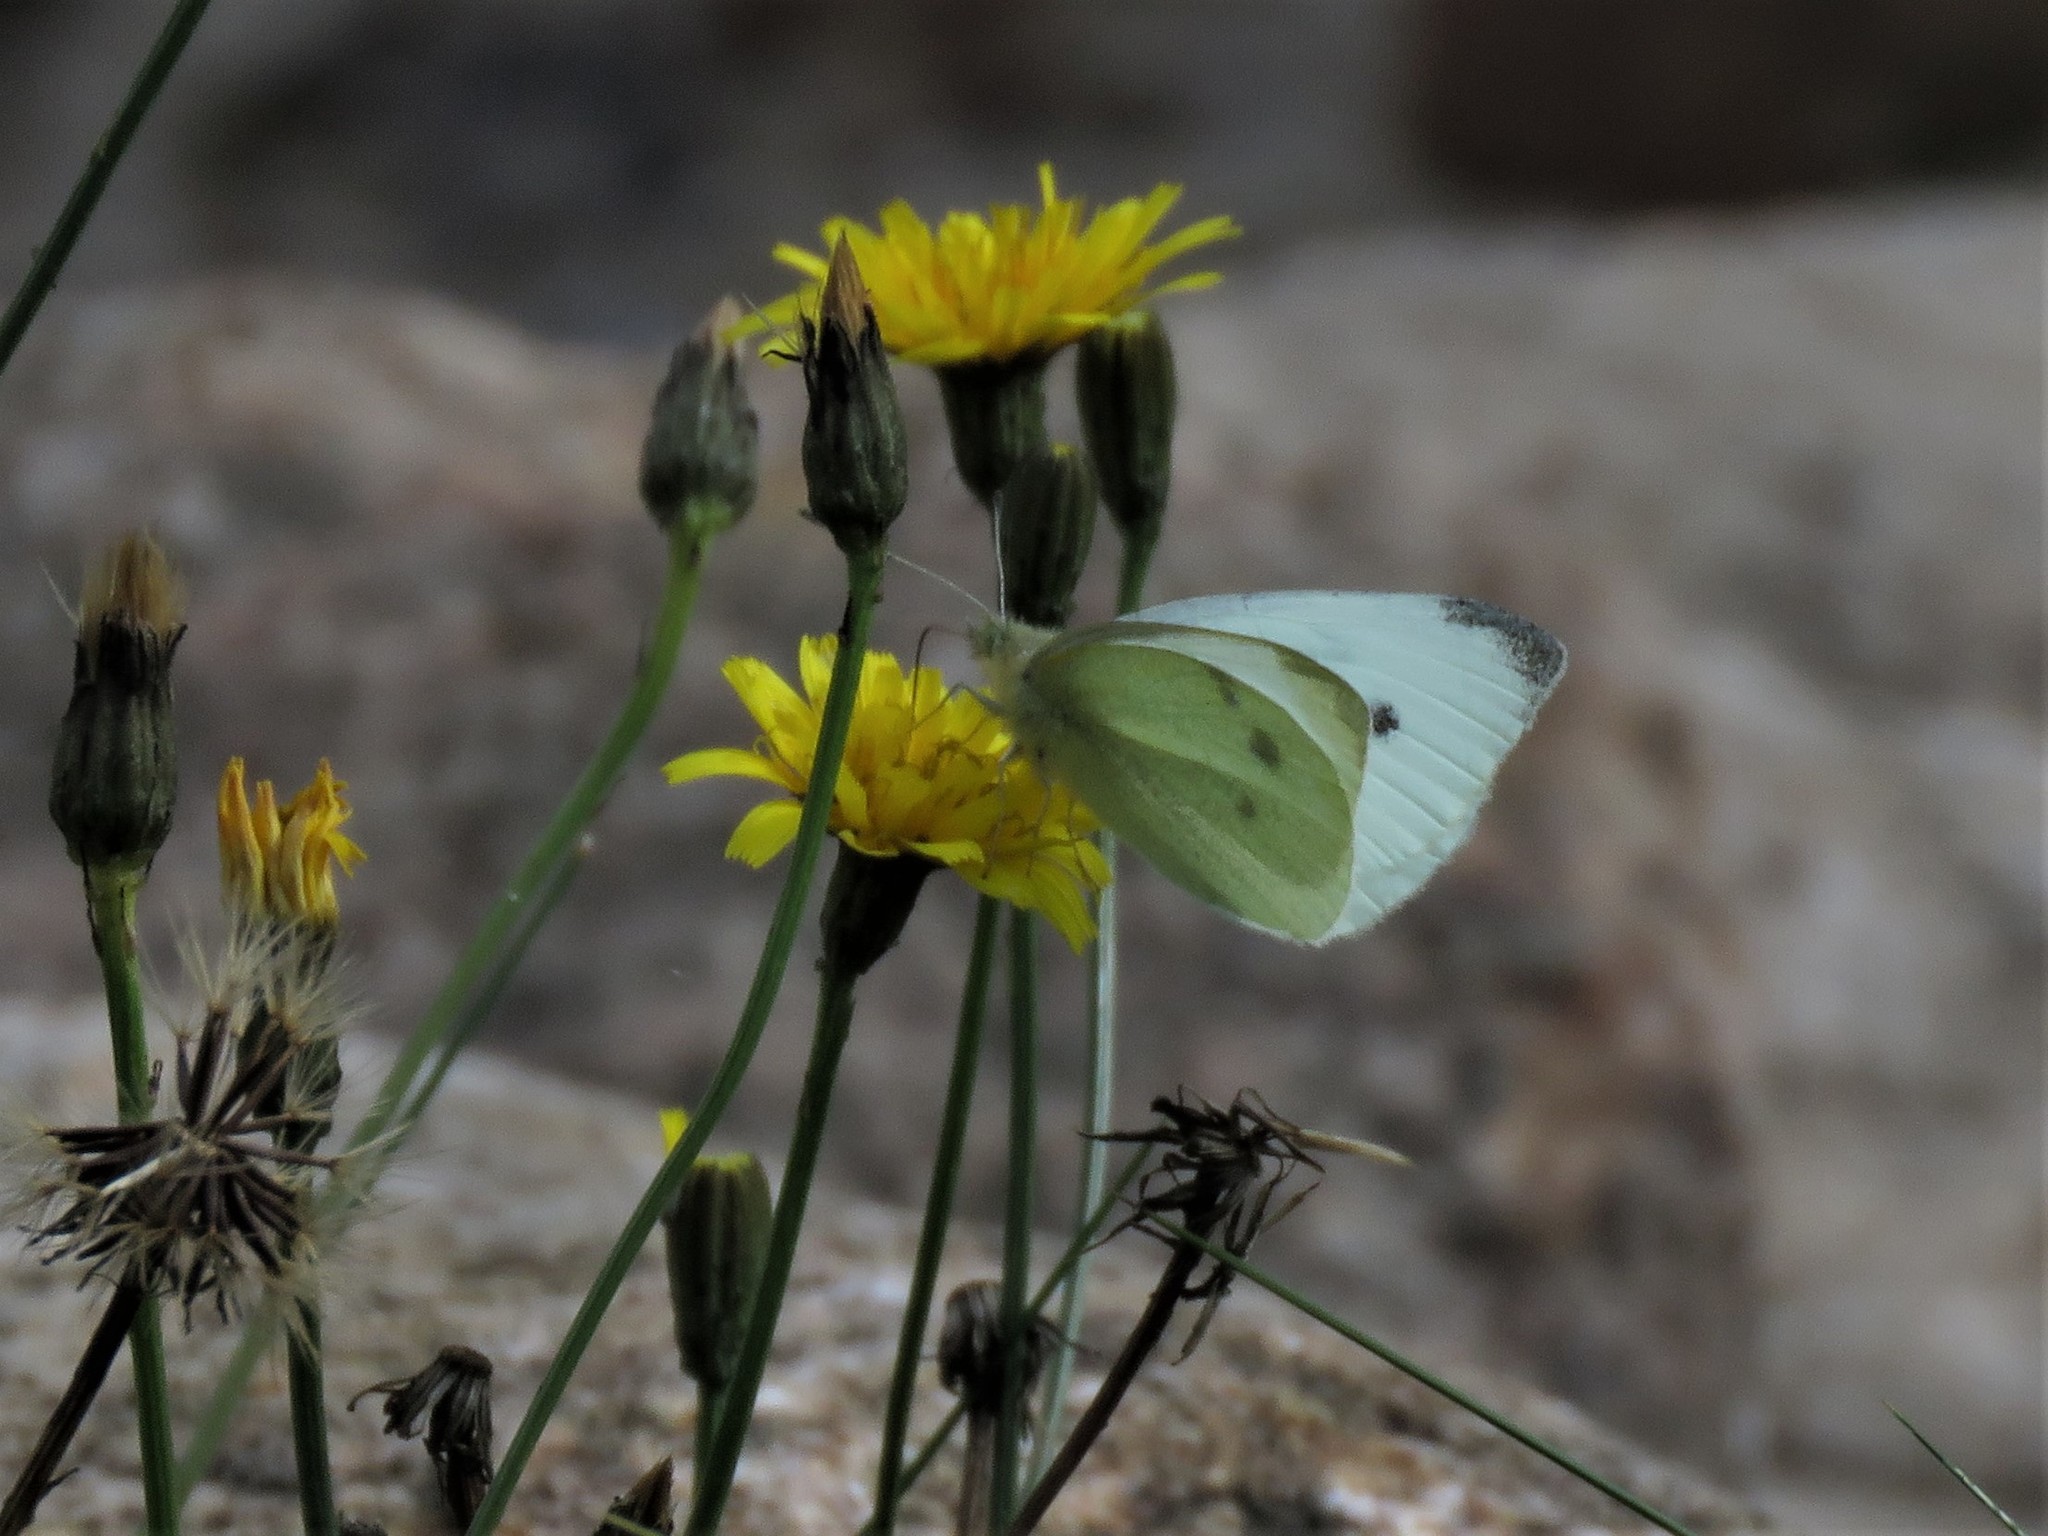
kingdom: Animalia
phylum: Arthropoda
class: Insecta
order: Lepidoptera
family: Pieridae
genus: Pieris
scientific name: Pieris rapae
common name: Small white
